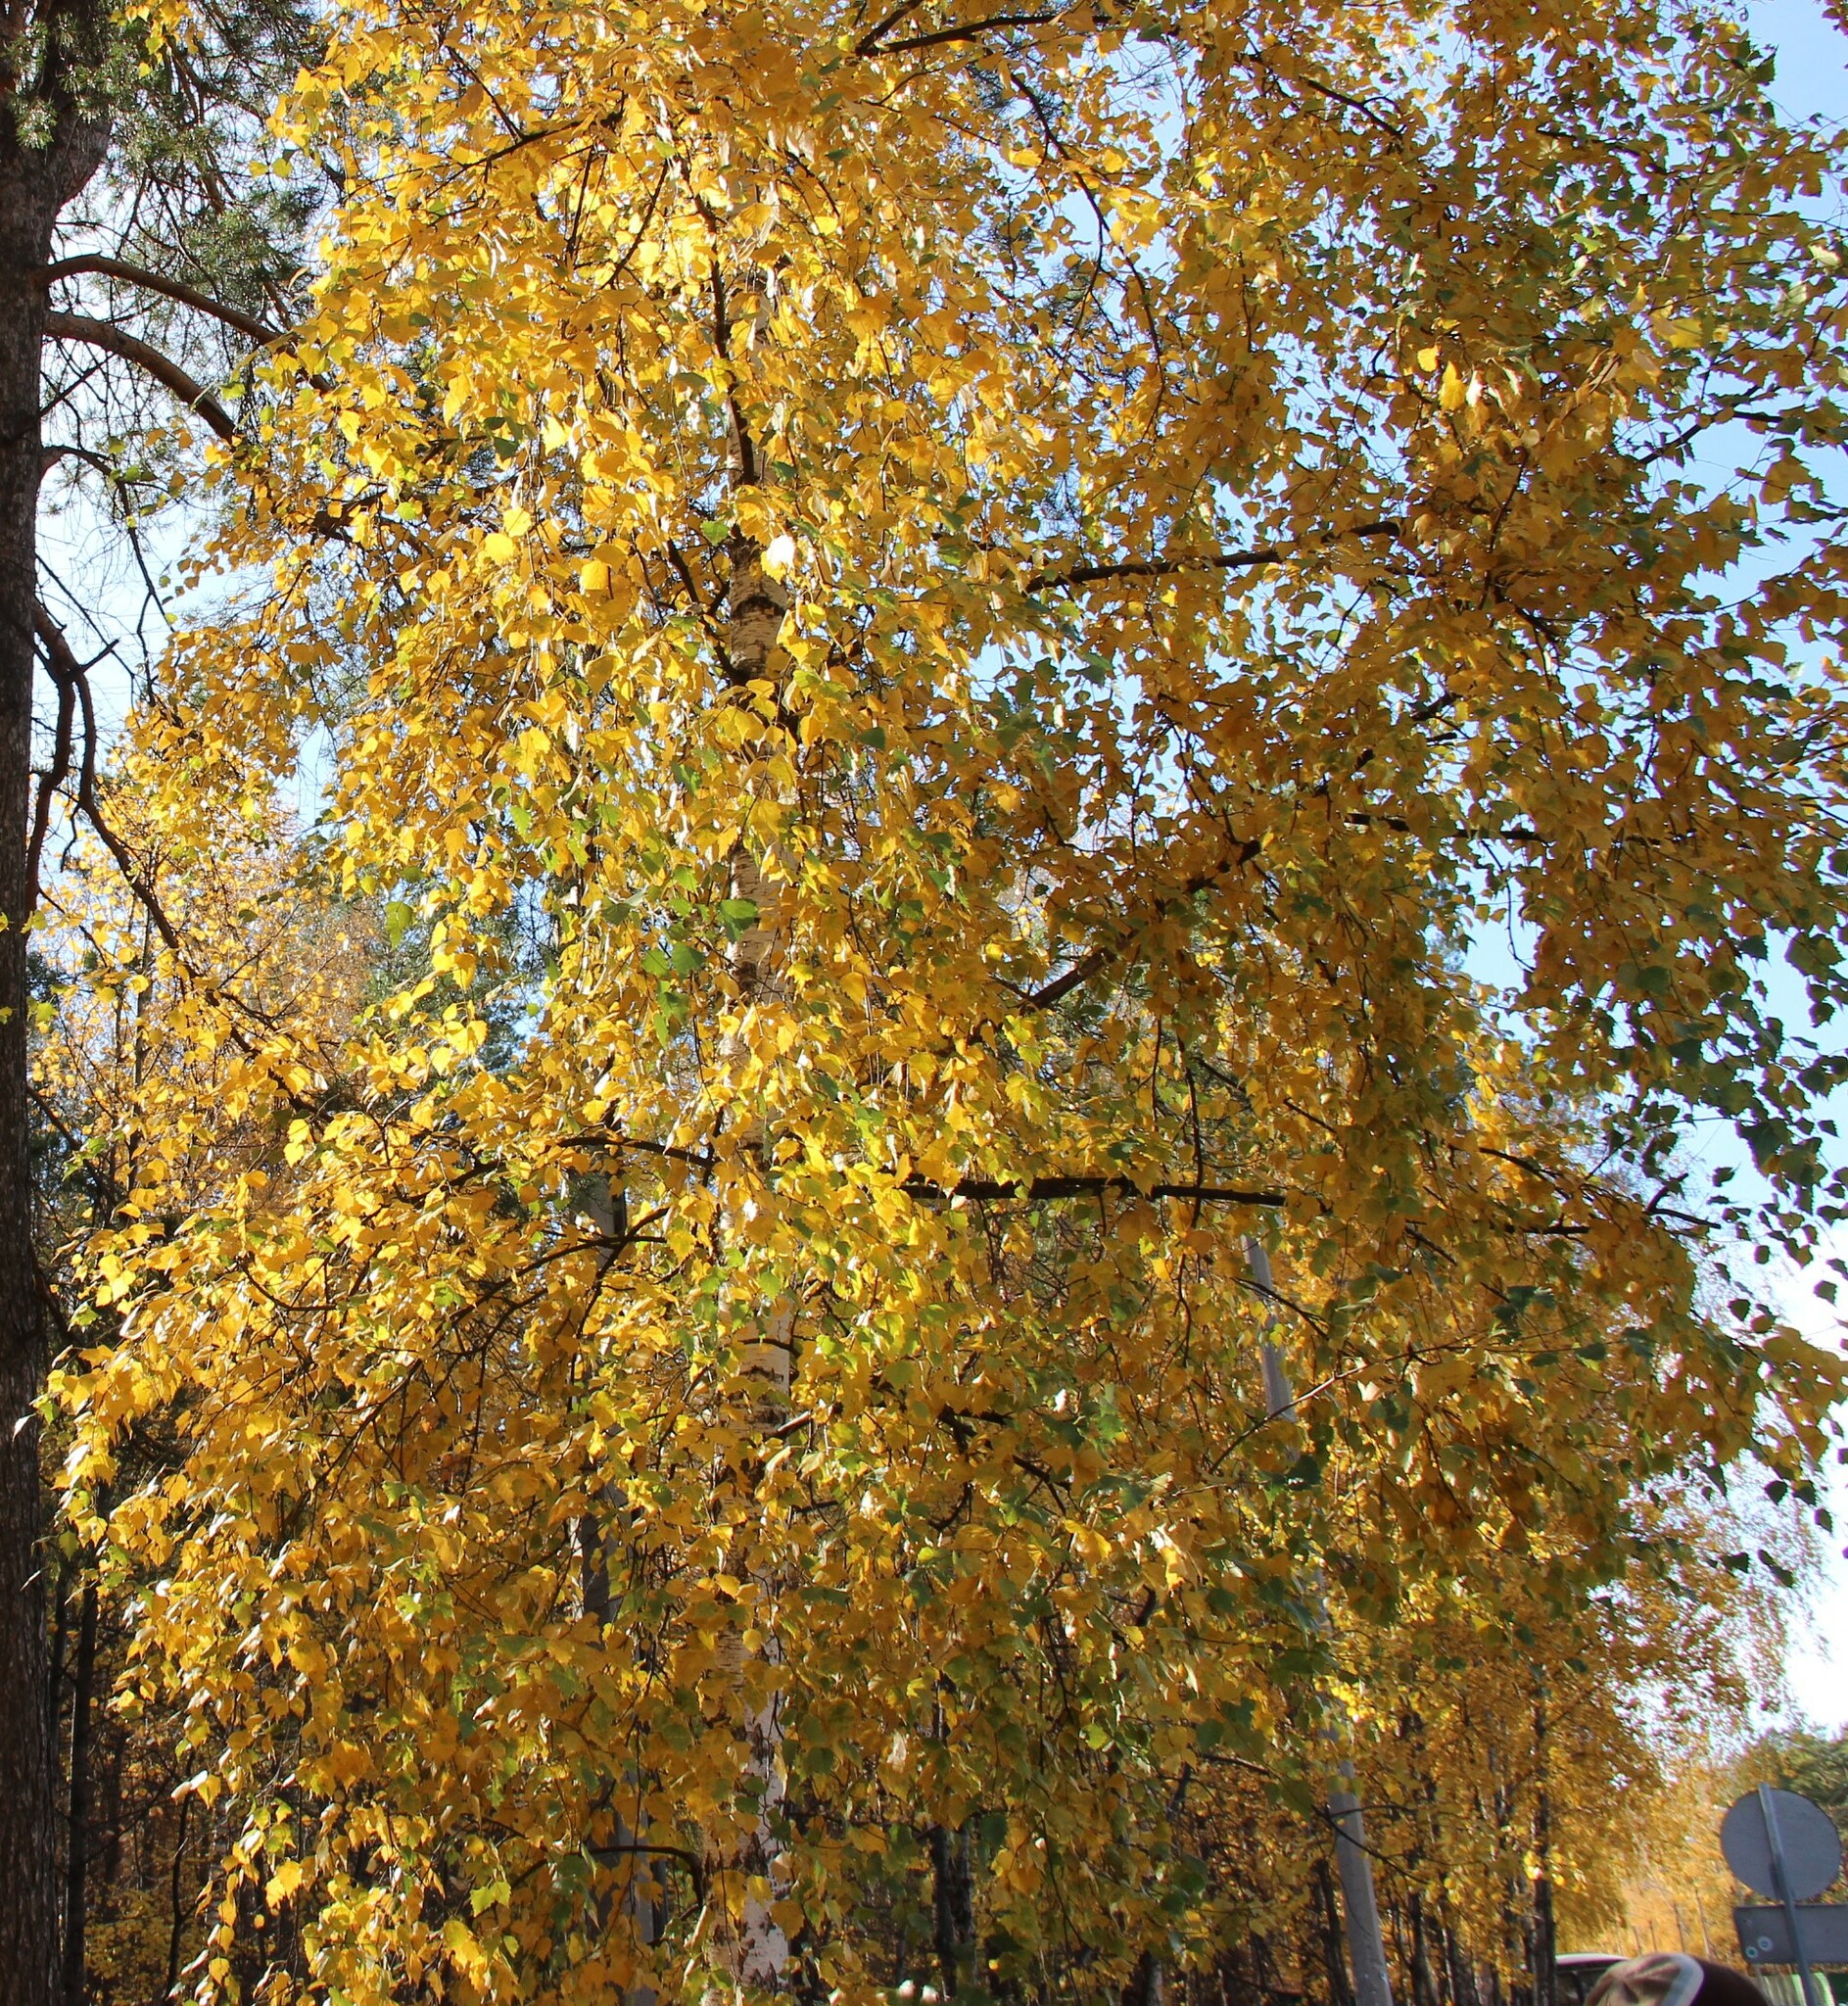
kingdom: Plantae
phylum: Tracheophyta
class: Magnoliopsida
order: Fagales
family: Betulaceae
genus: Betula
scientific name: Betula pendula
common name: Silver birch
